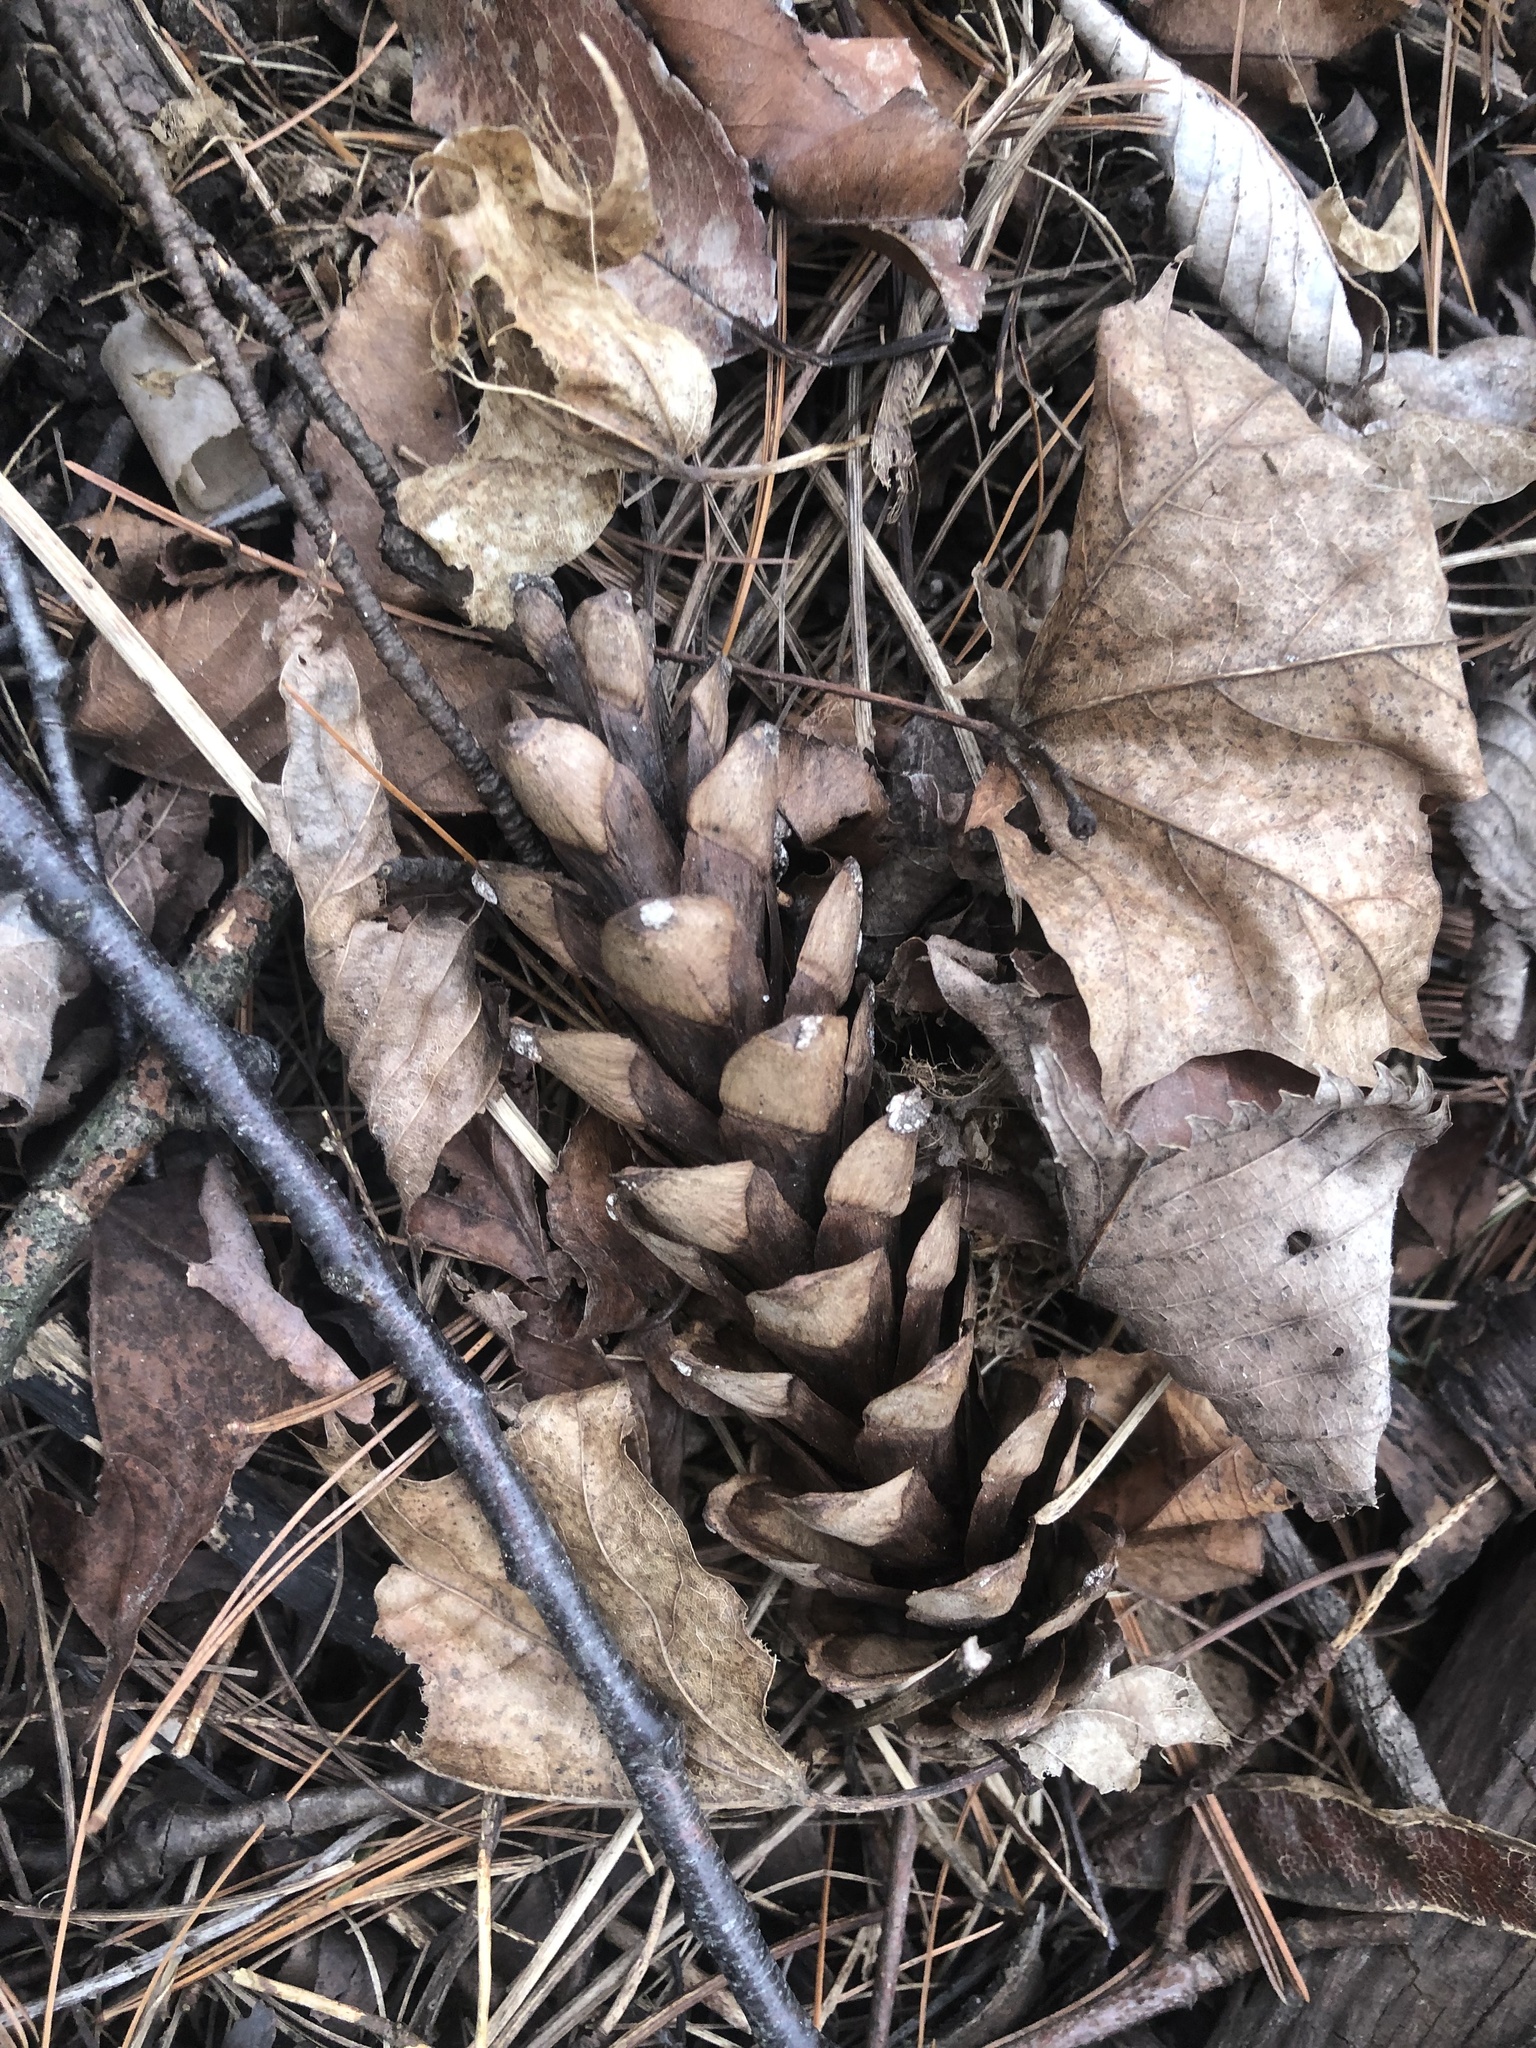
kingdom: Plantae
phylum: Tracheophyta
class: Pinopsida
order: Pinales
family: Pinaceae
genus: Pinus
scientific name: Pinus strobus
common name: Weymouth pine
